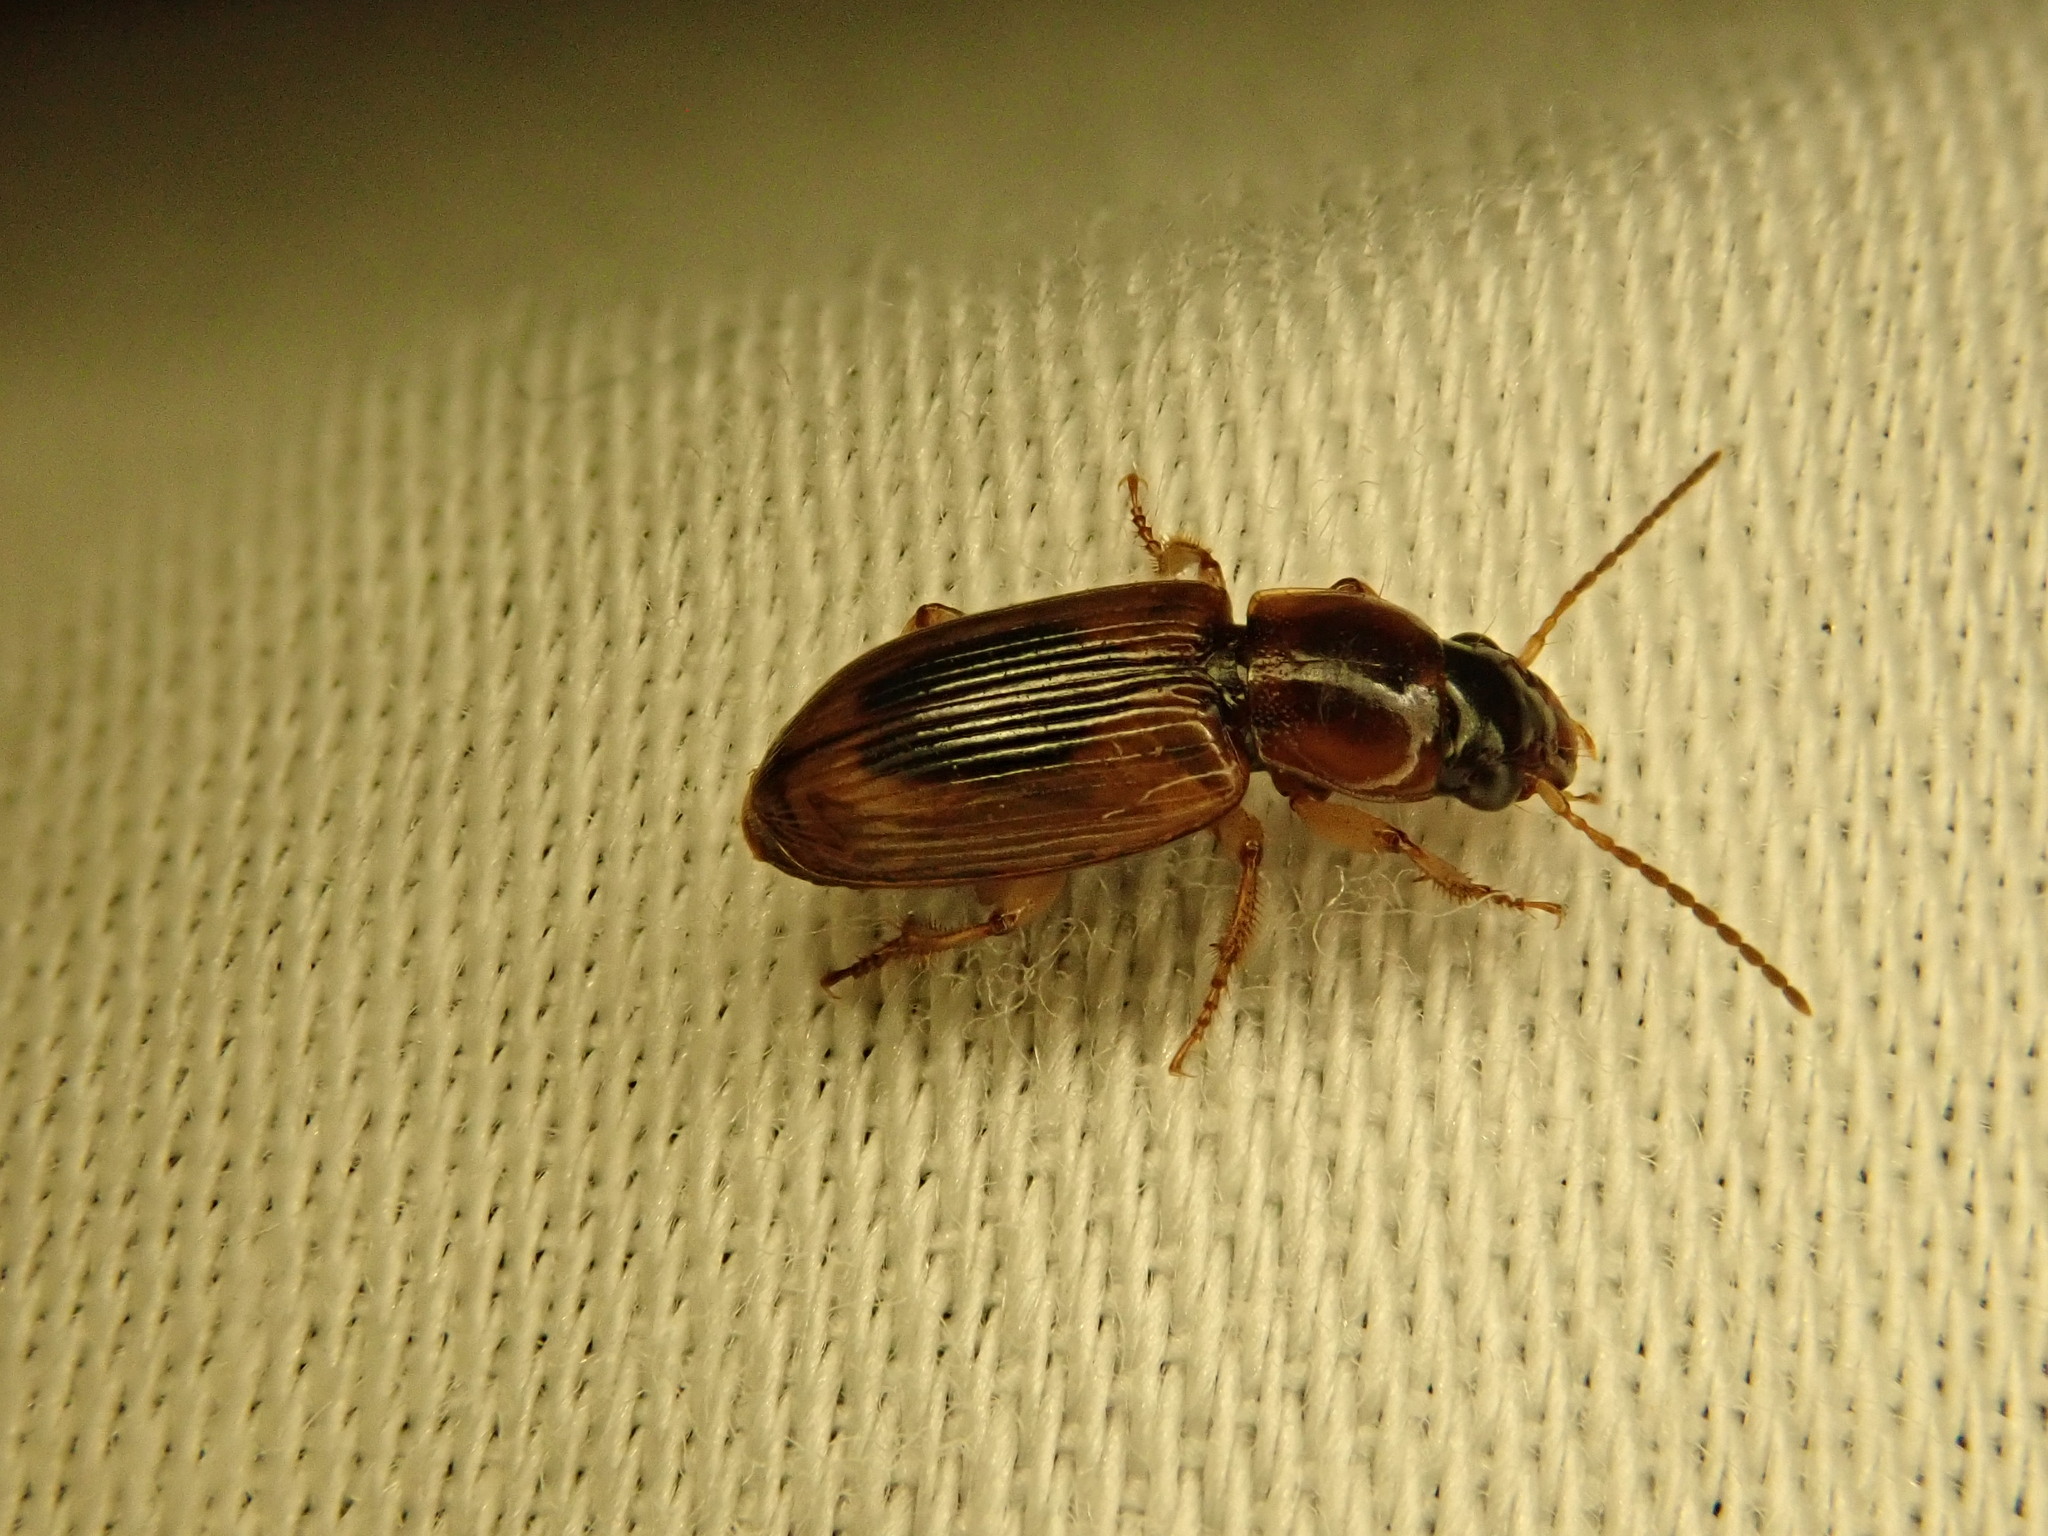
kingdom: Animalia
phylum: Arthropoda
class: Insecta
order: Coleoptera
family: Carabidae
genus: Stenolophus
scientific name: Stenolophus lecontei
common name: Leconte's seedcorn beetle
